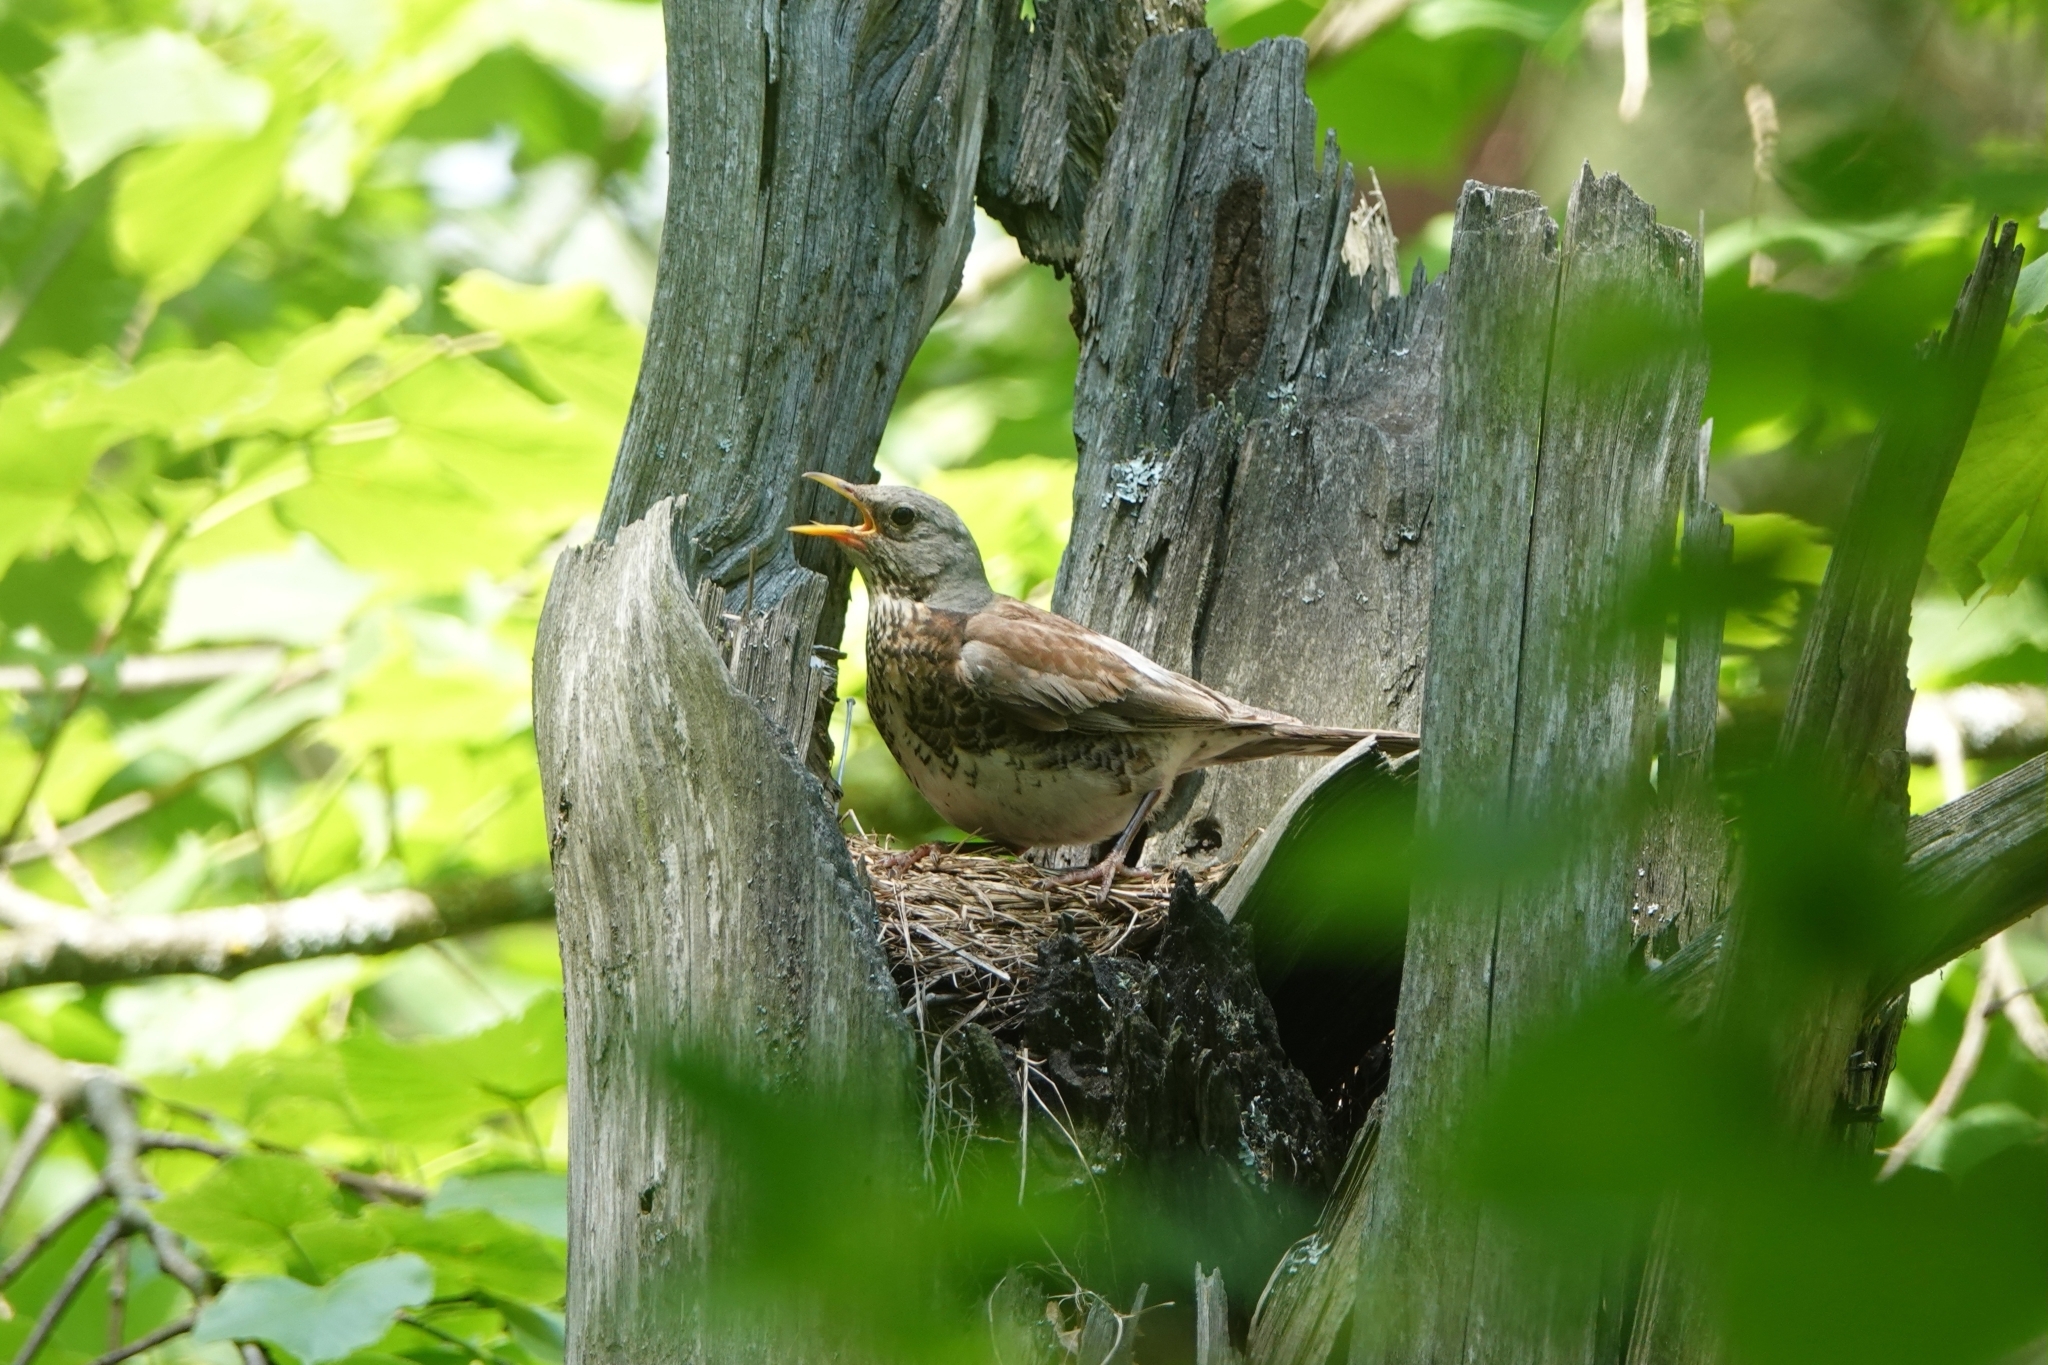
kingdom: Animalia
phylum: Chordata
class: Aves
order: Passeriformes
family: Turdidae
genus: Turdus
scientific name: Turdus pilaris
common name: Fieldfare
